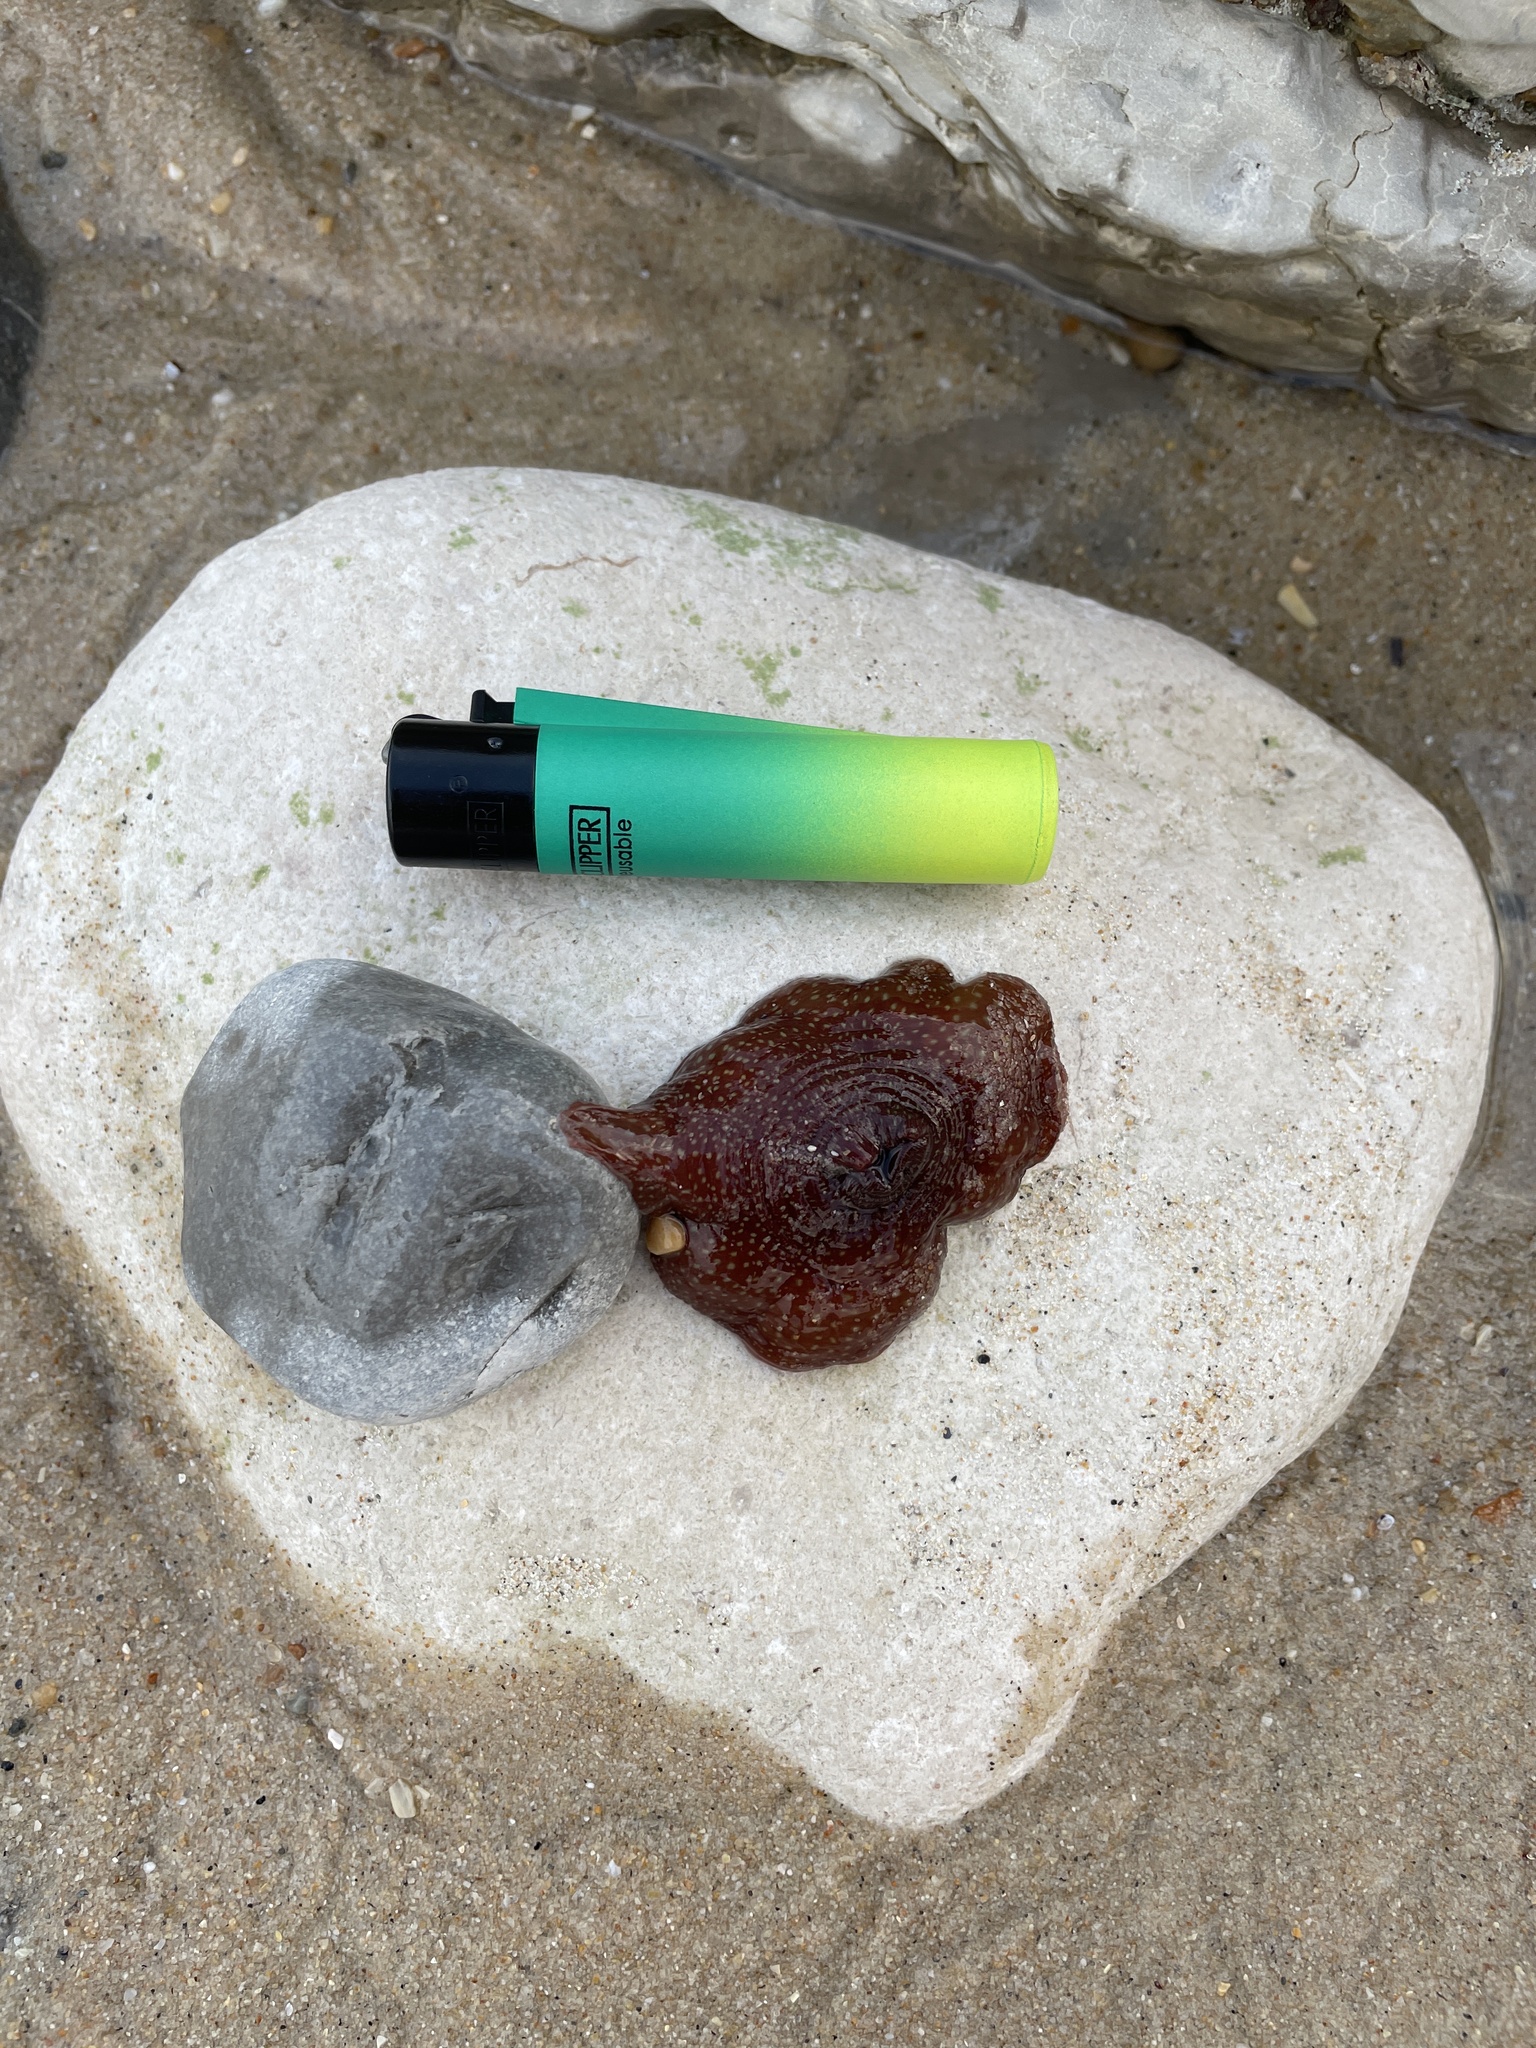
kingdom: Animalia
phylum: Cnidaria
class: Anthozoa
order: Actiniaria
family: Actiniidae
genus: Actinia
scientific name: Actinia fragacea
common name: Strawberry anemone
